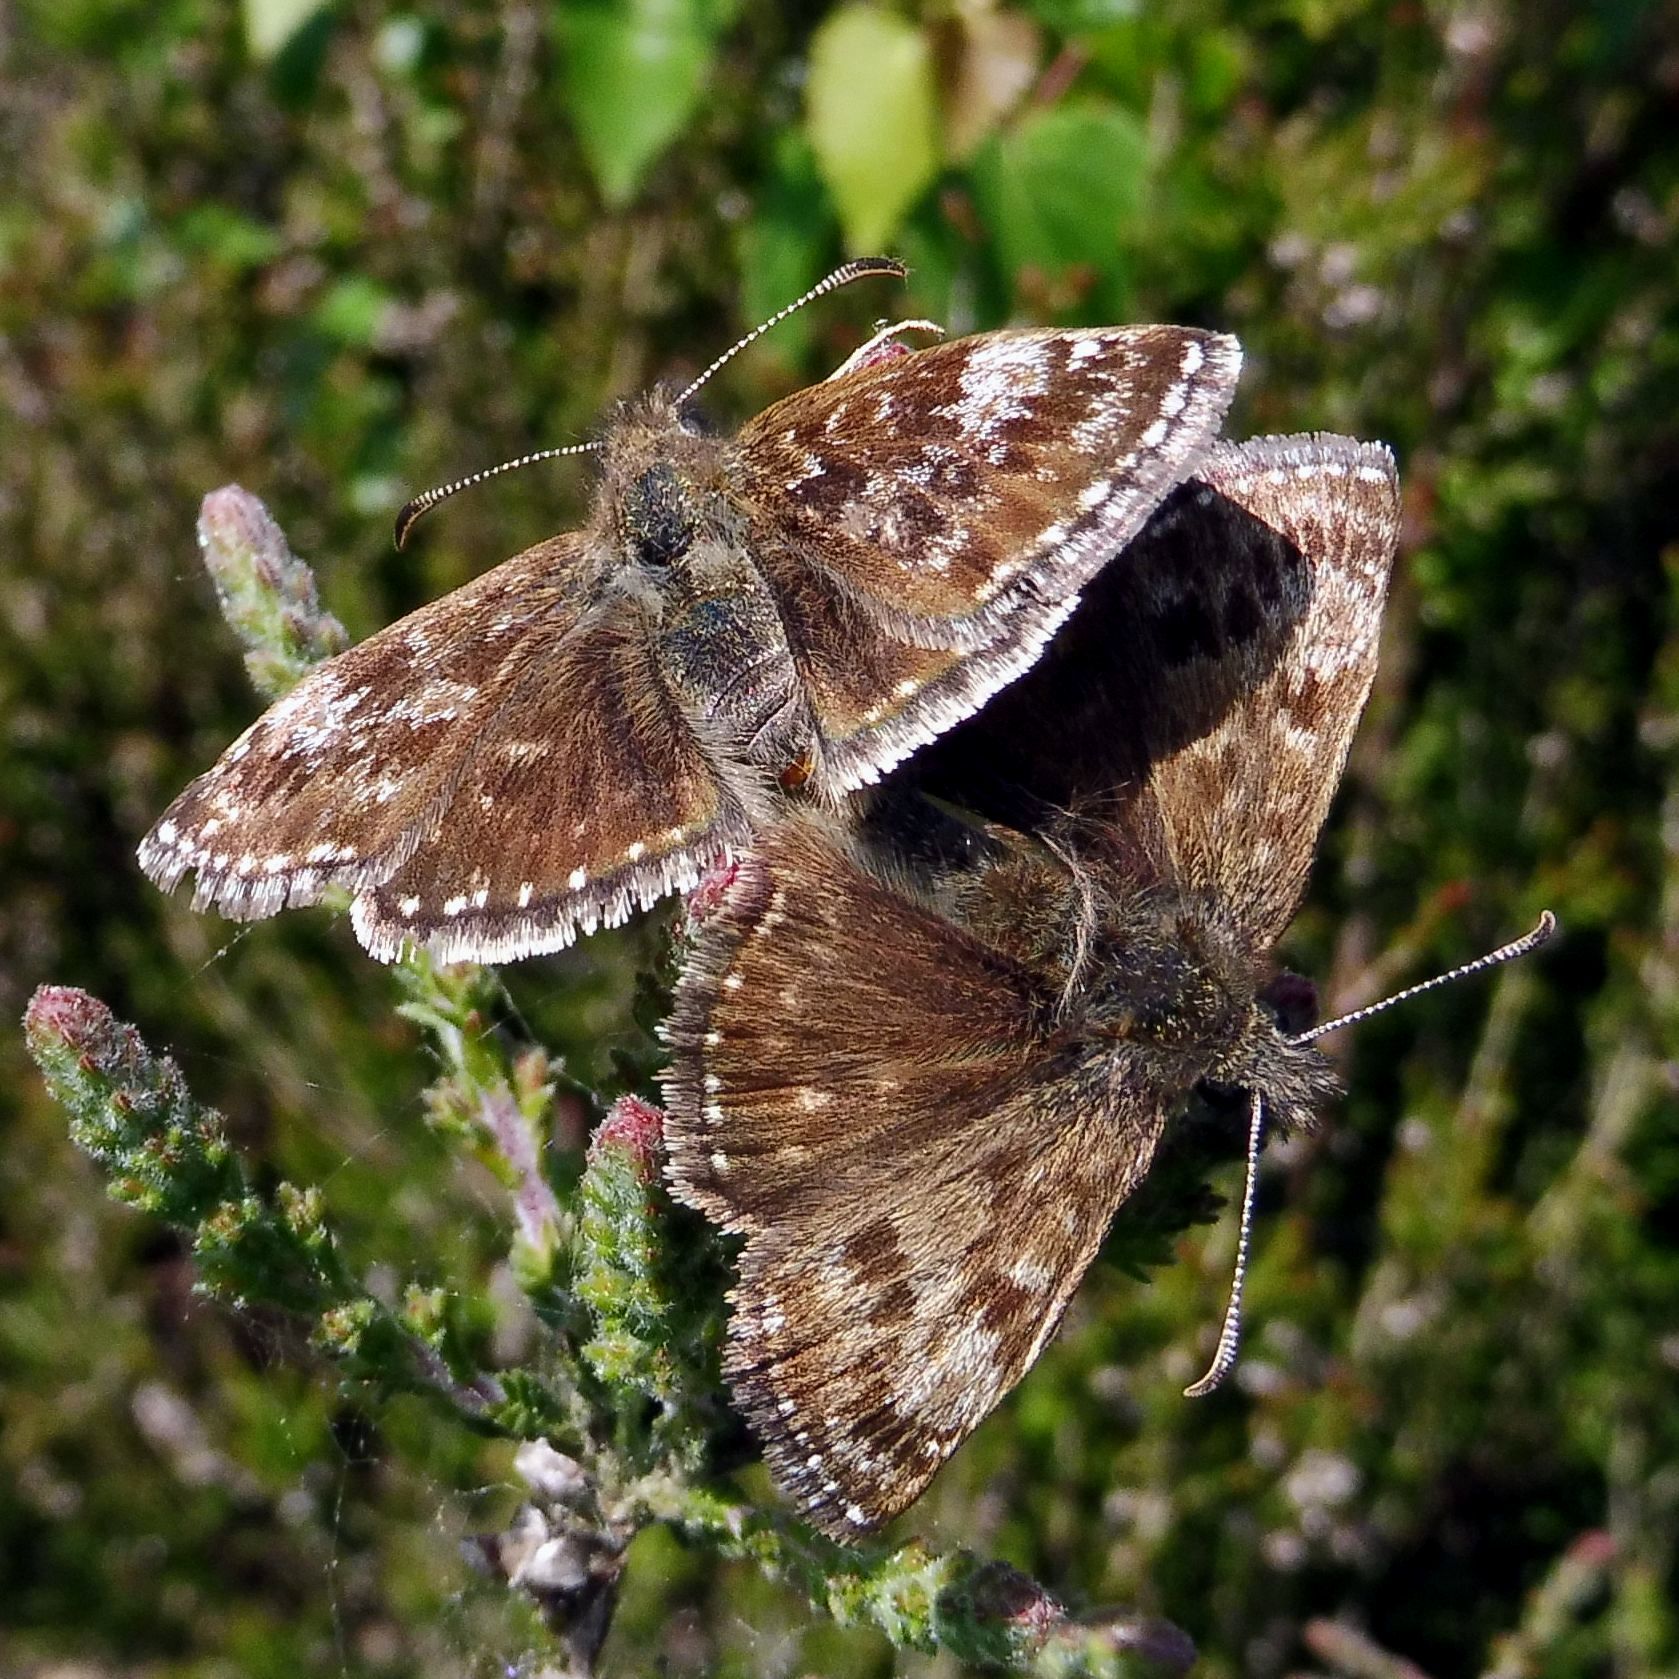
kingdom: Animalia
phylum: Arthropoda
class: Insecta
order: Lepidoptera
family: Hesperiidae
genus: Erynnis
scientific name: Erynnis tages
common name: Dingy skipper
